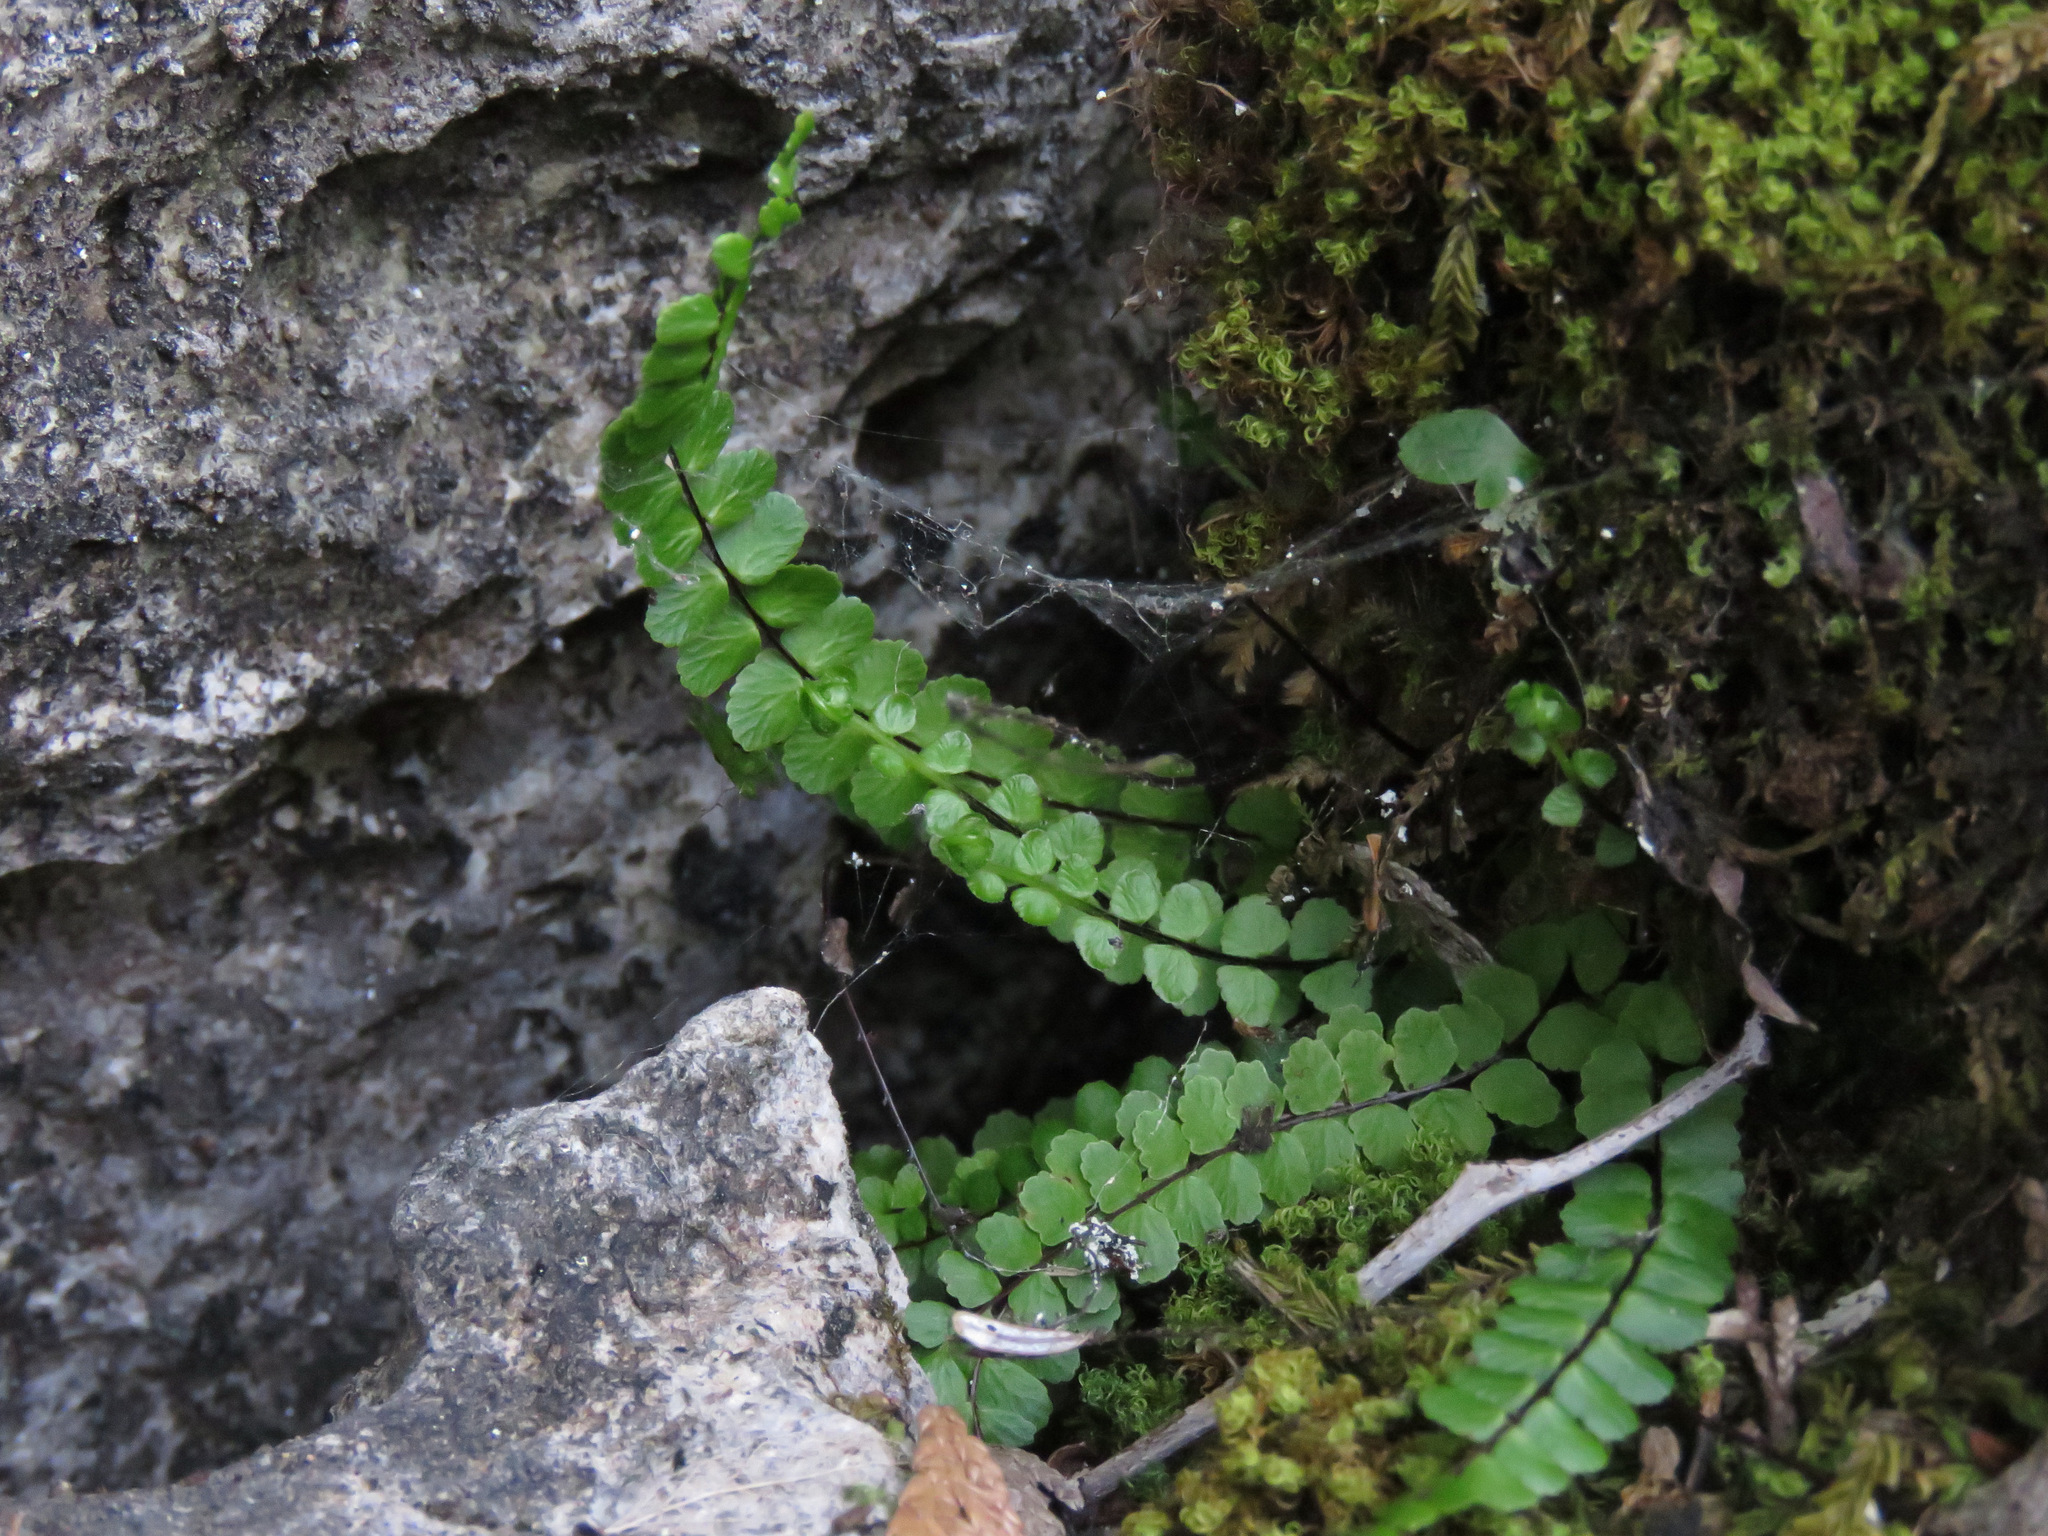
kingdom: Plantae
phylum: Tracheophyta
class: Polypodiopsida
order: Polypodiales
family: Aspleniaceae
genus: Asplenium
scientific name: Asplenium trichomanes
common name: Maidenhair spleenwort
